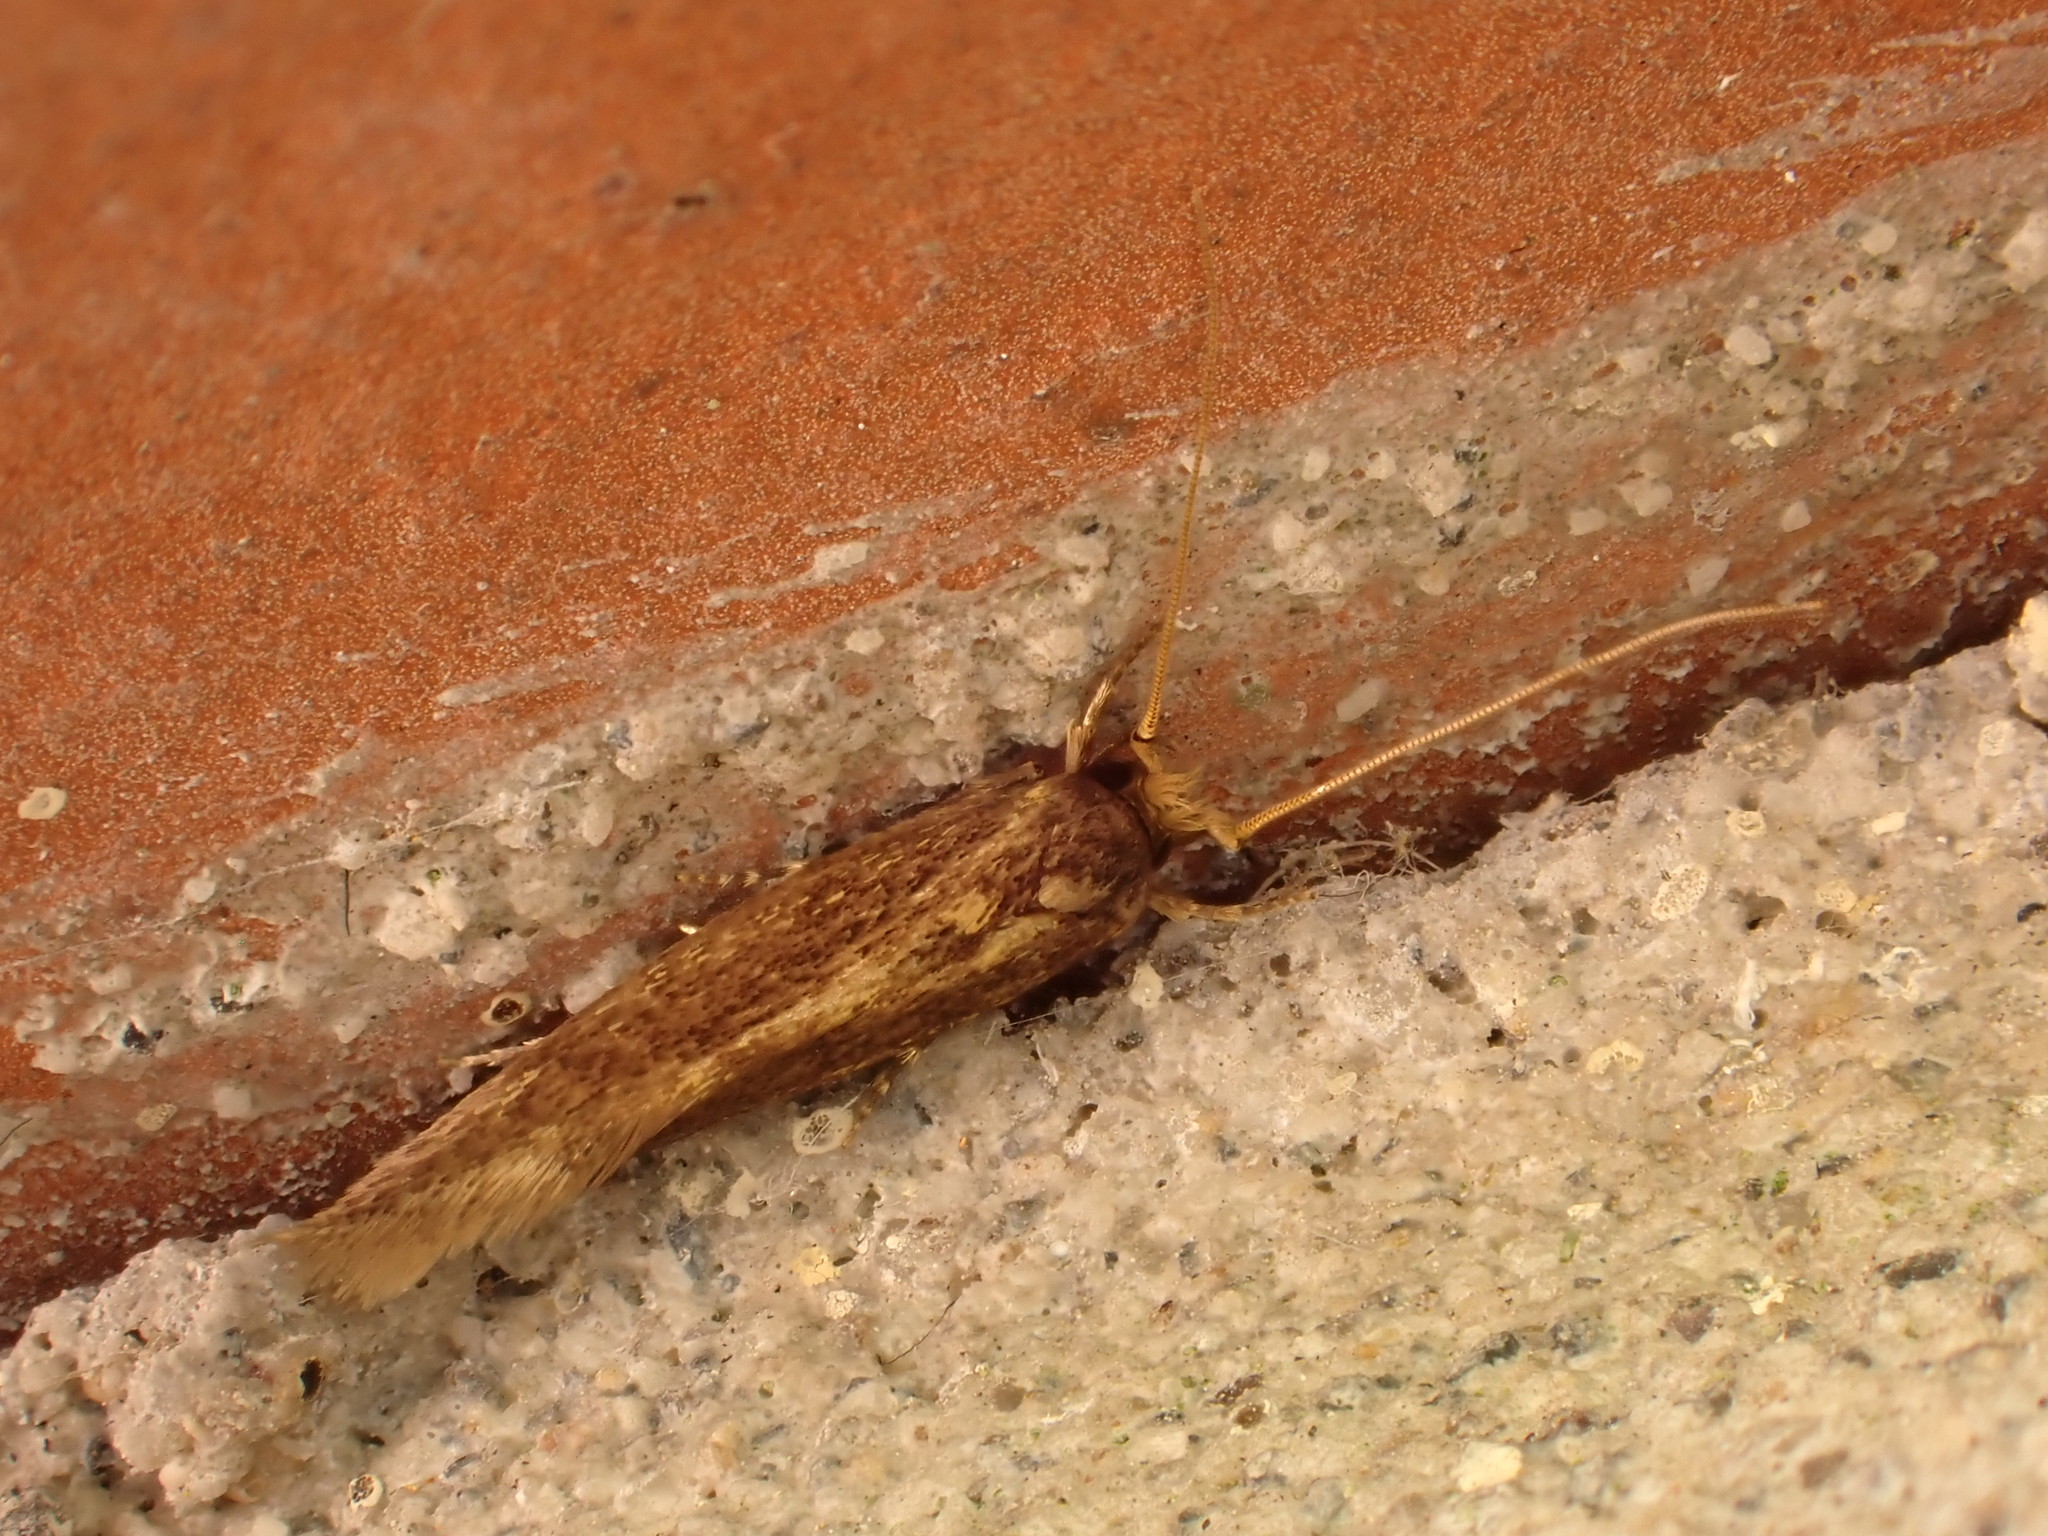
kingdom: Animalia
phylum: Arthropoda
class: Insecta
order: Lepidoptera
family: Tineidae
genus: Opogona
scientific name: Opogona omoscopa
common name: Moth
